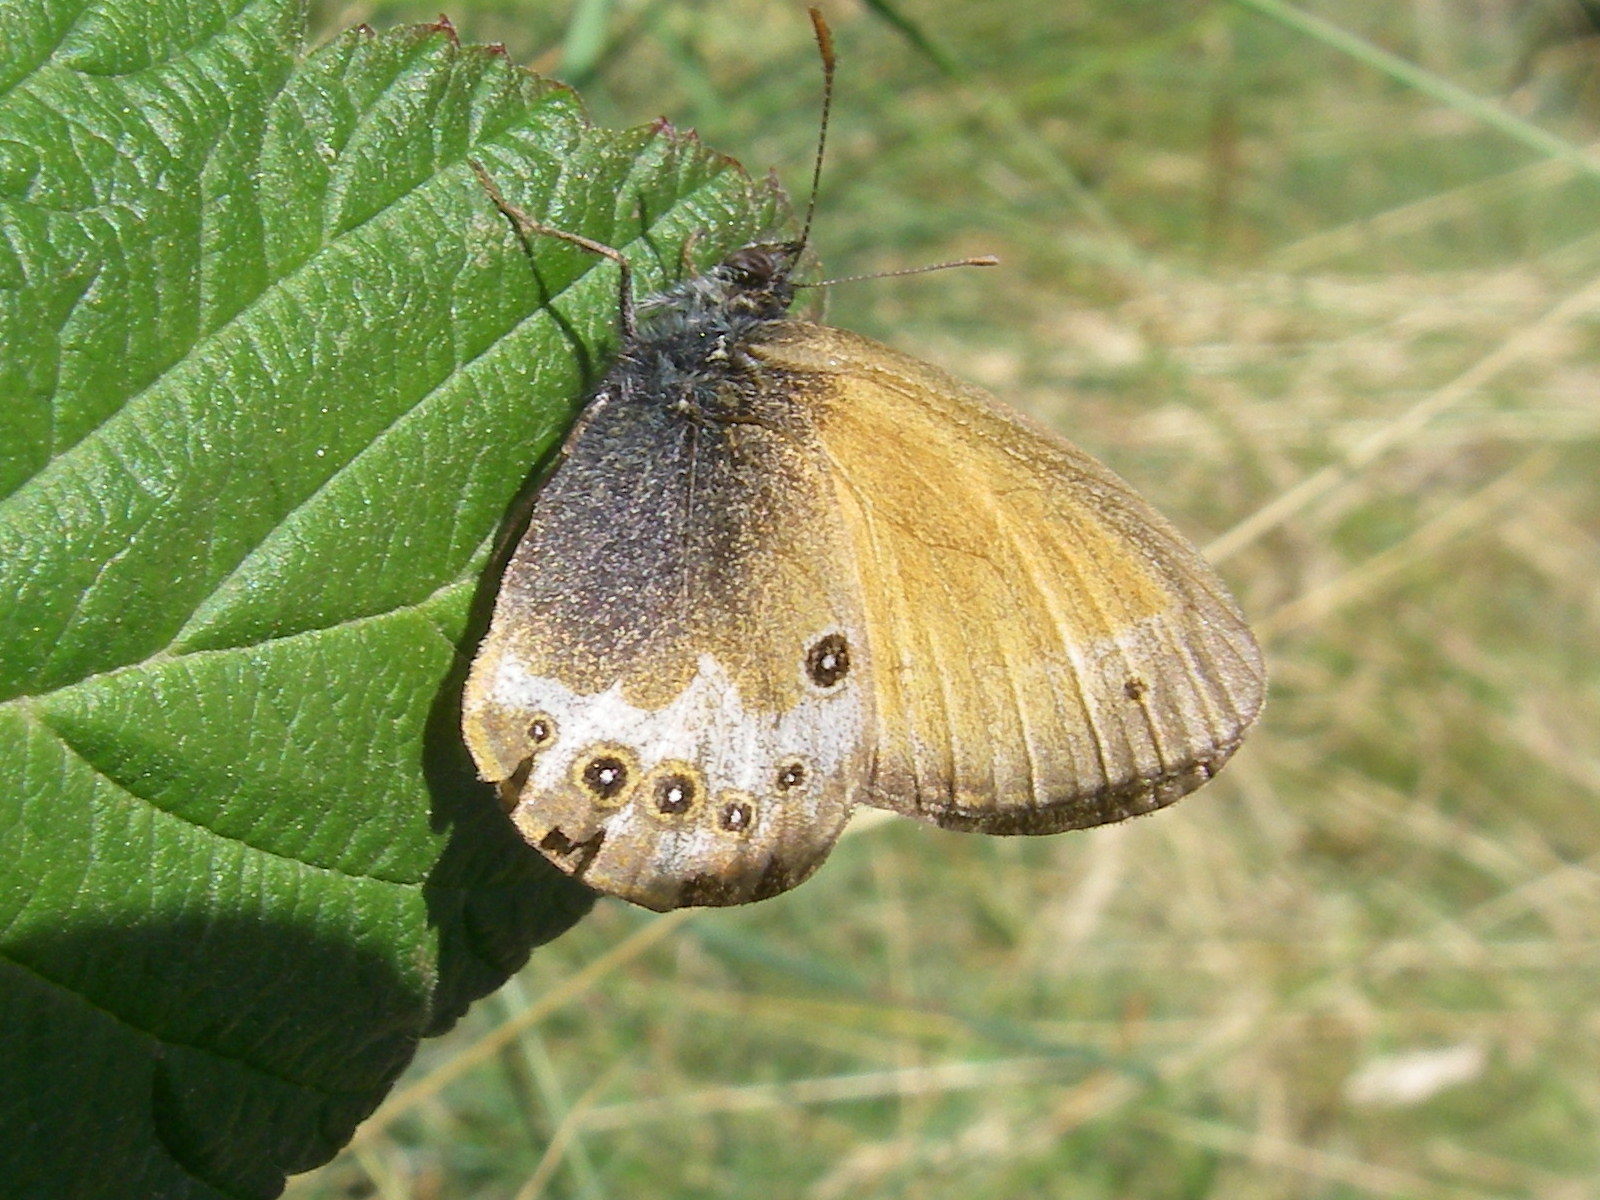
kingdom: Animalia
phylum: Arthropoda
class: Insecta
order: Lepidoptera
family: Nymphalidae
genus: Coenonympha
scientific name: Coenonympha arcania
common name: Pearly heath
